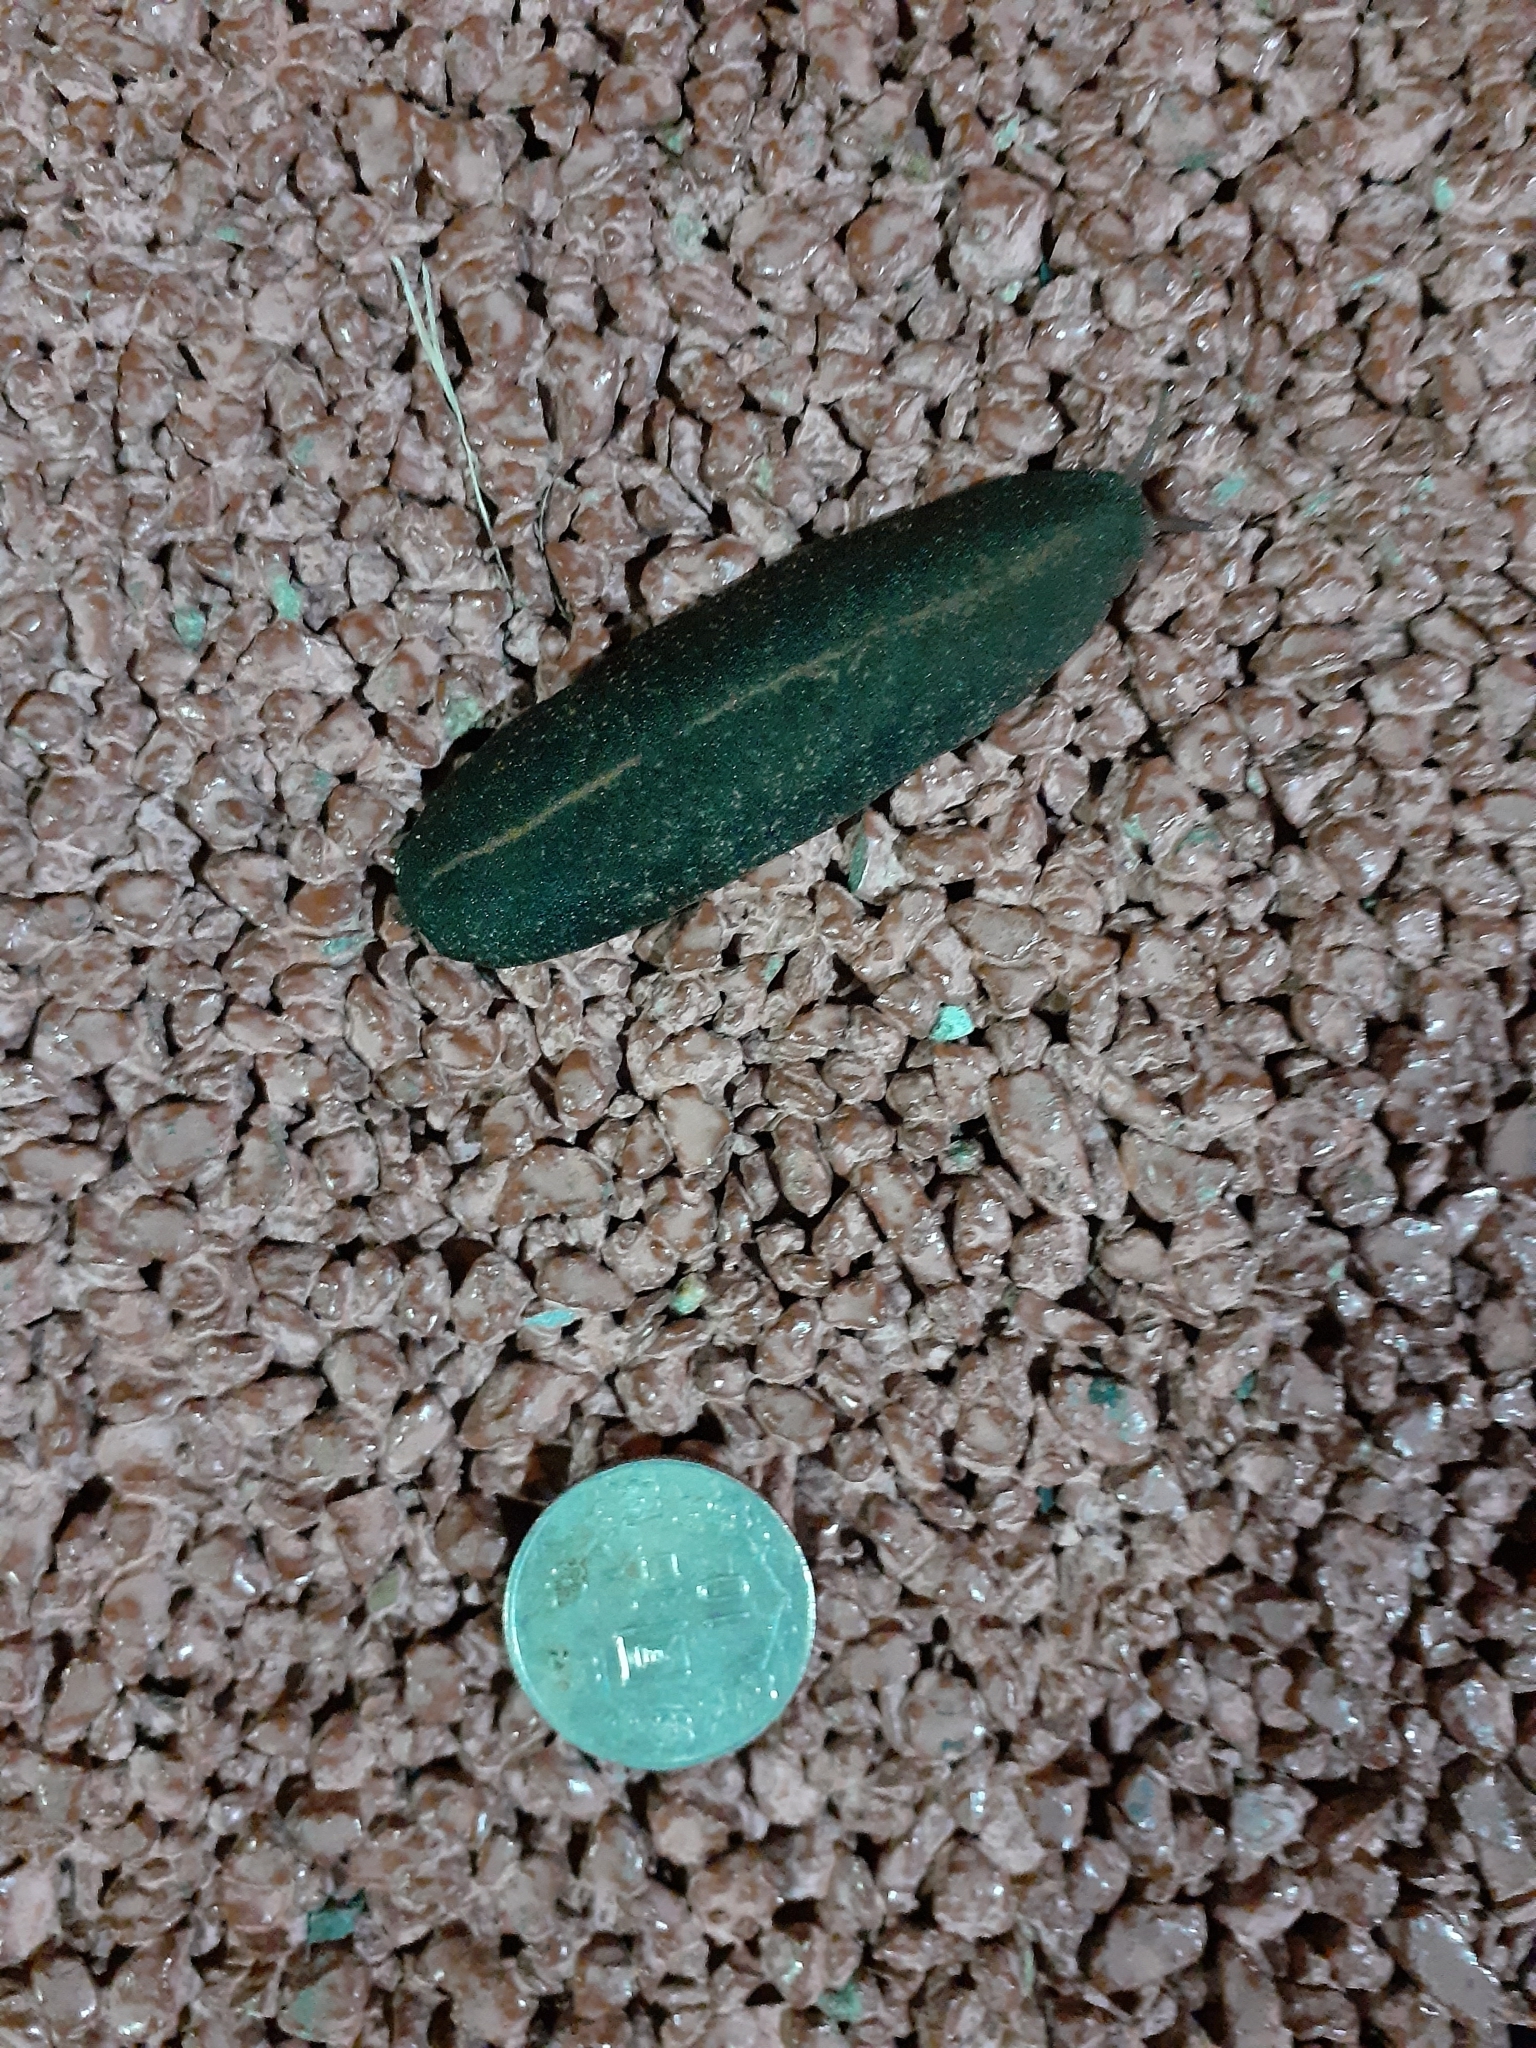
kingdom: Animalia
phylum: Mollusca
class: Gastropoda
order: Systellommatophora
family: Veronicellidae
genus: Laevicaulis
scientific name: Laevicaulis alte
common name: Tropical leatherleaf
